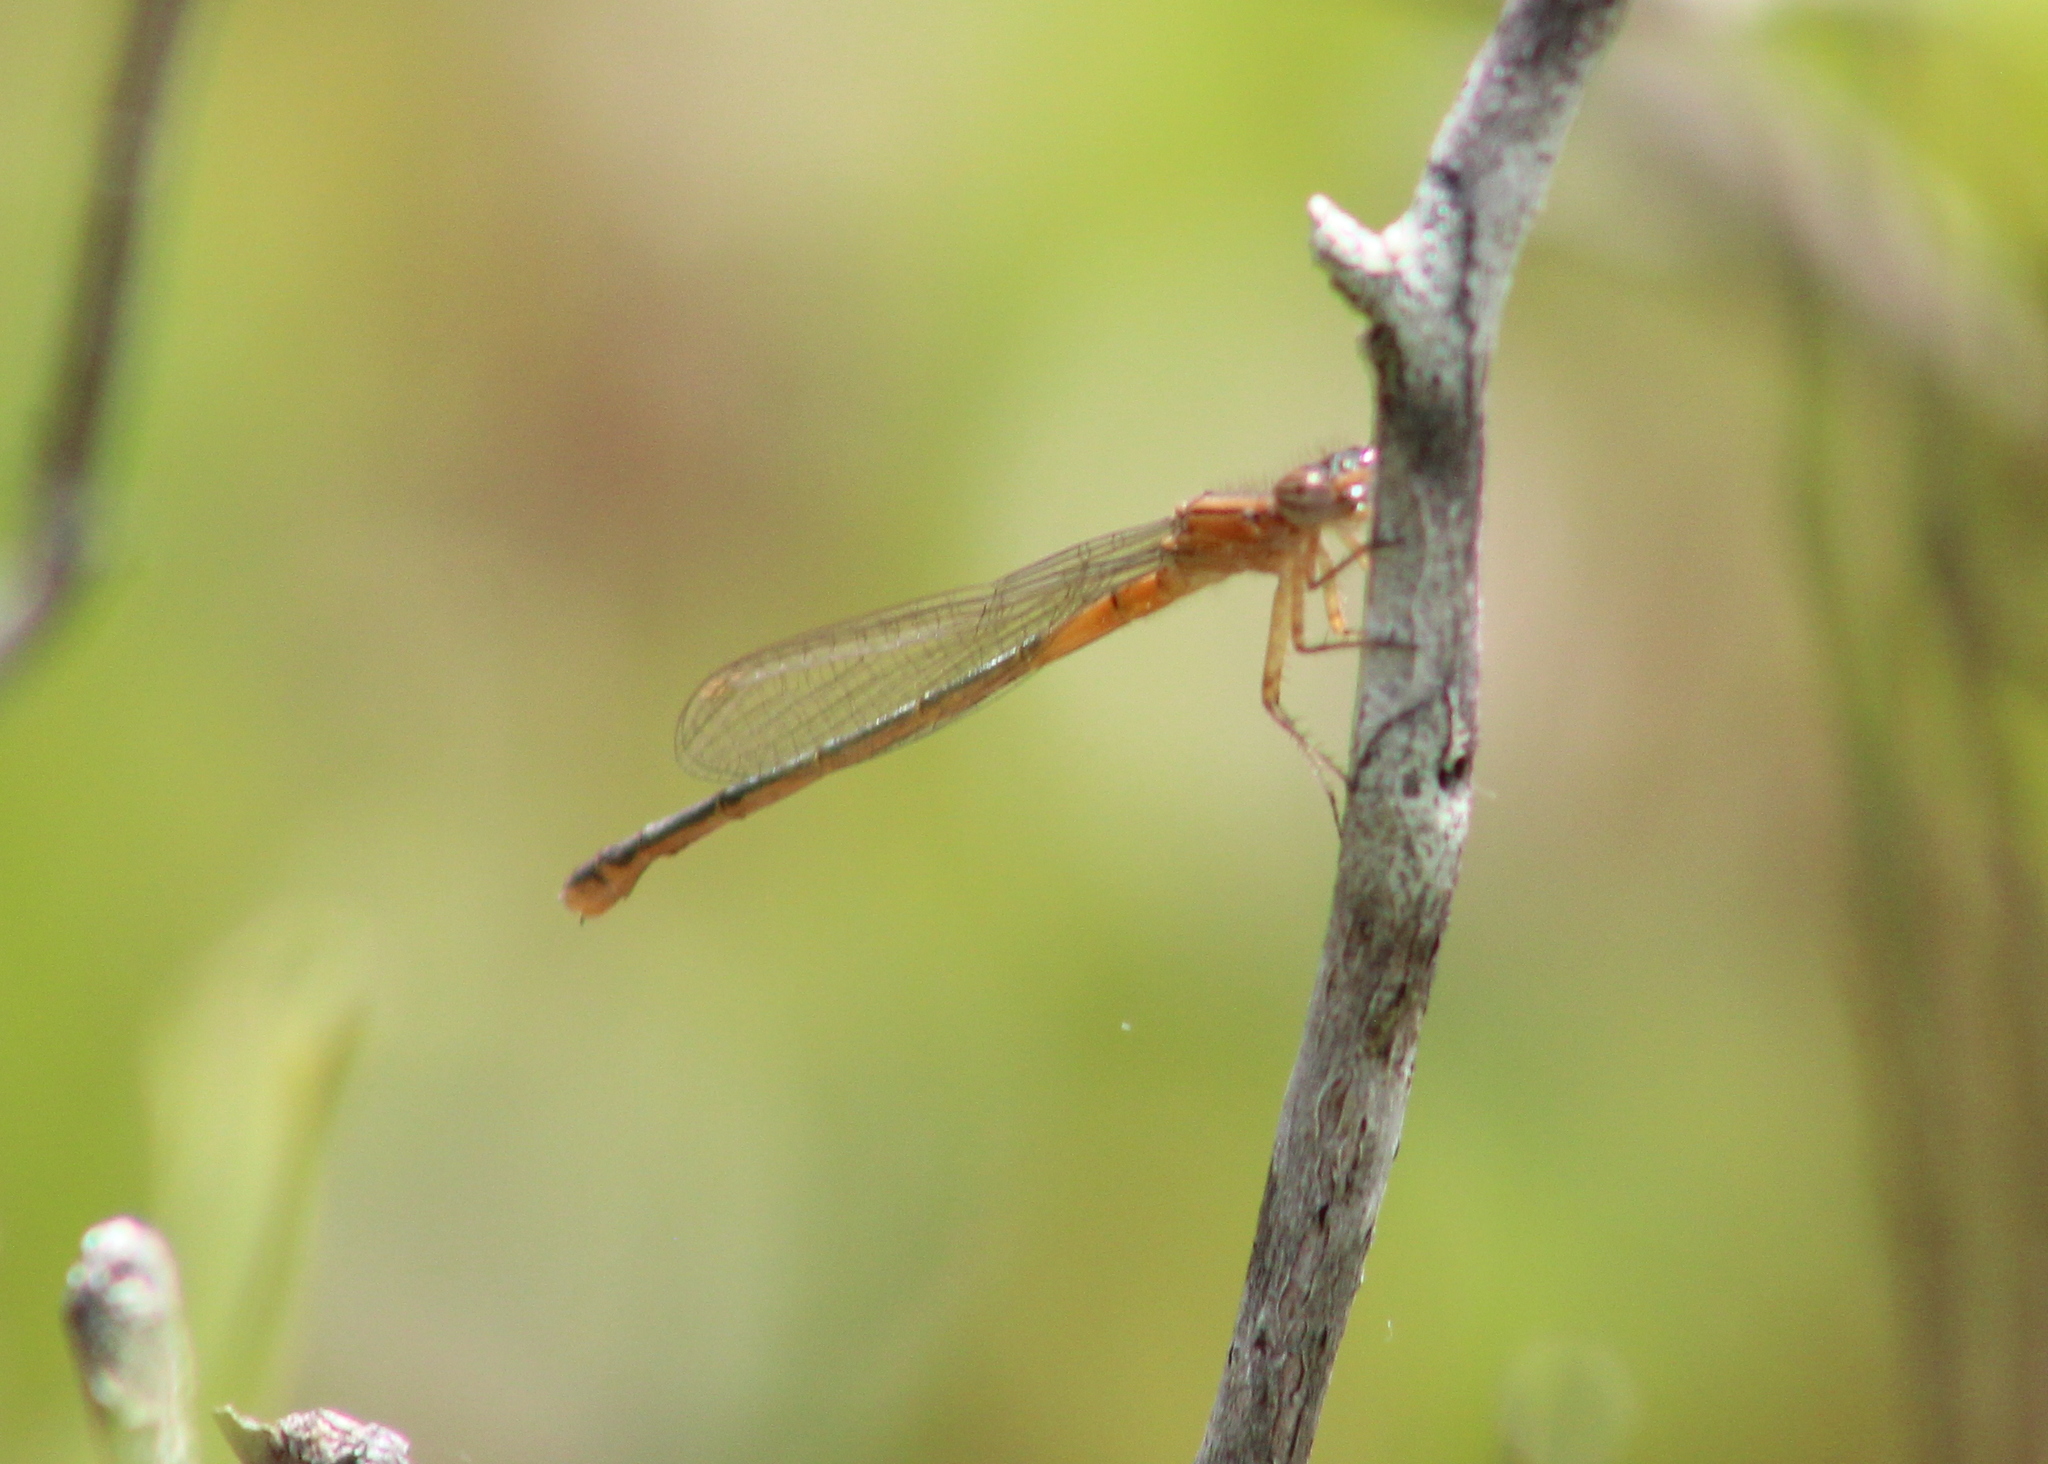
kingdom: Animalia
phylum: Arthropoda
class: Insecta
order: Odonata
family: Coenagrionidae
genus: Ischnura
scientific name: Ischnura verticalis
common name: Eastern forktail
